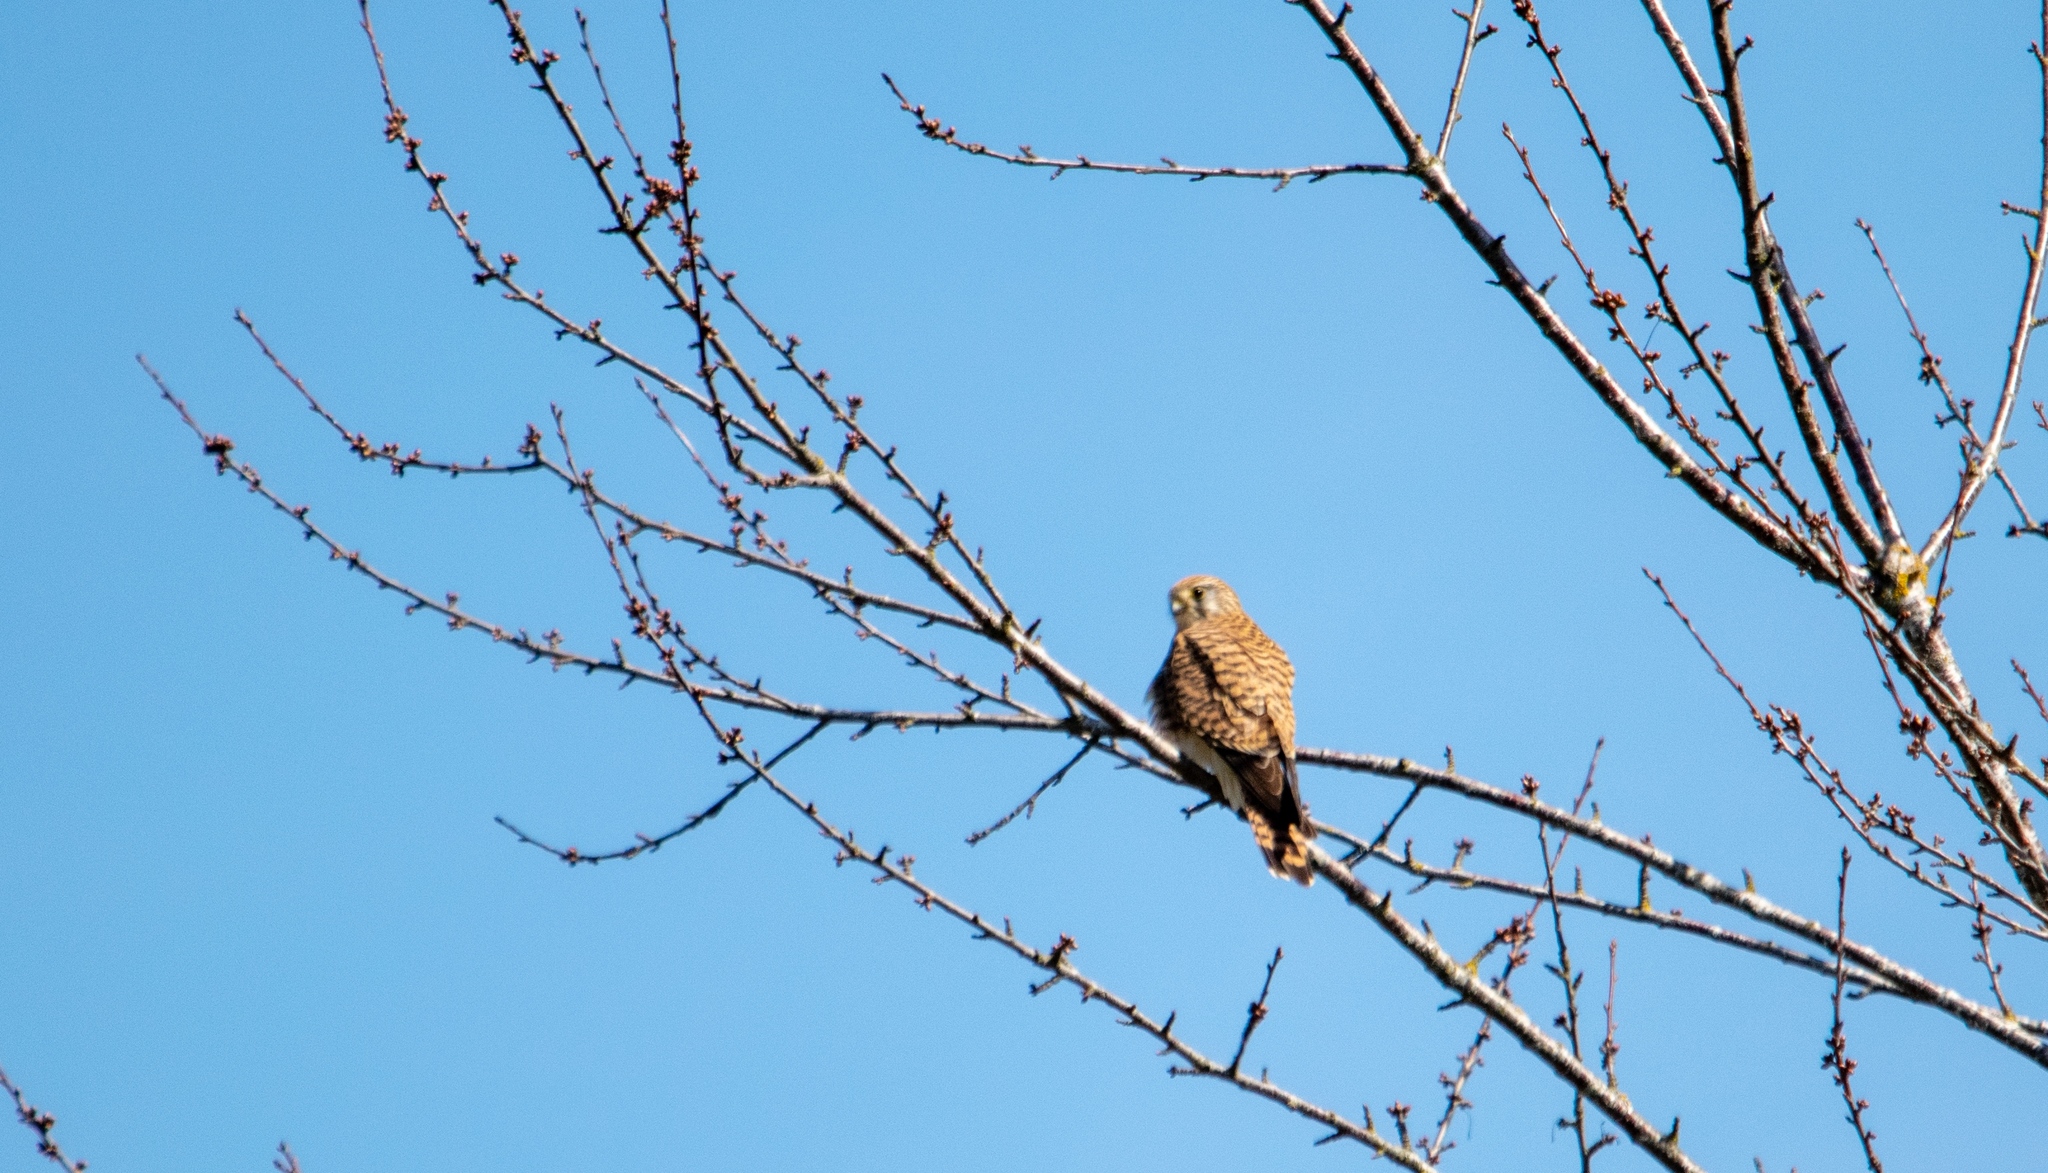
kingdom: Animalia
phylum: Chordata
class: Aves
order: Falconiformes
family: Falconidae
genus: Falco
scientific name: Falco tinnunculus
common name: Common kestrel
